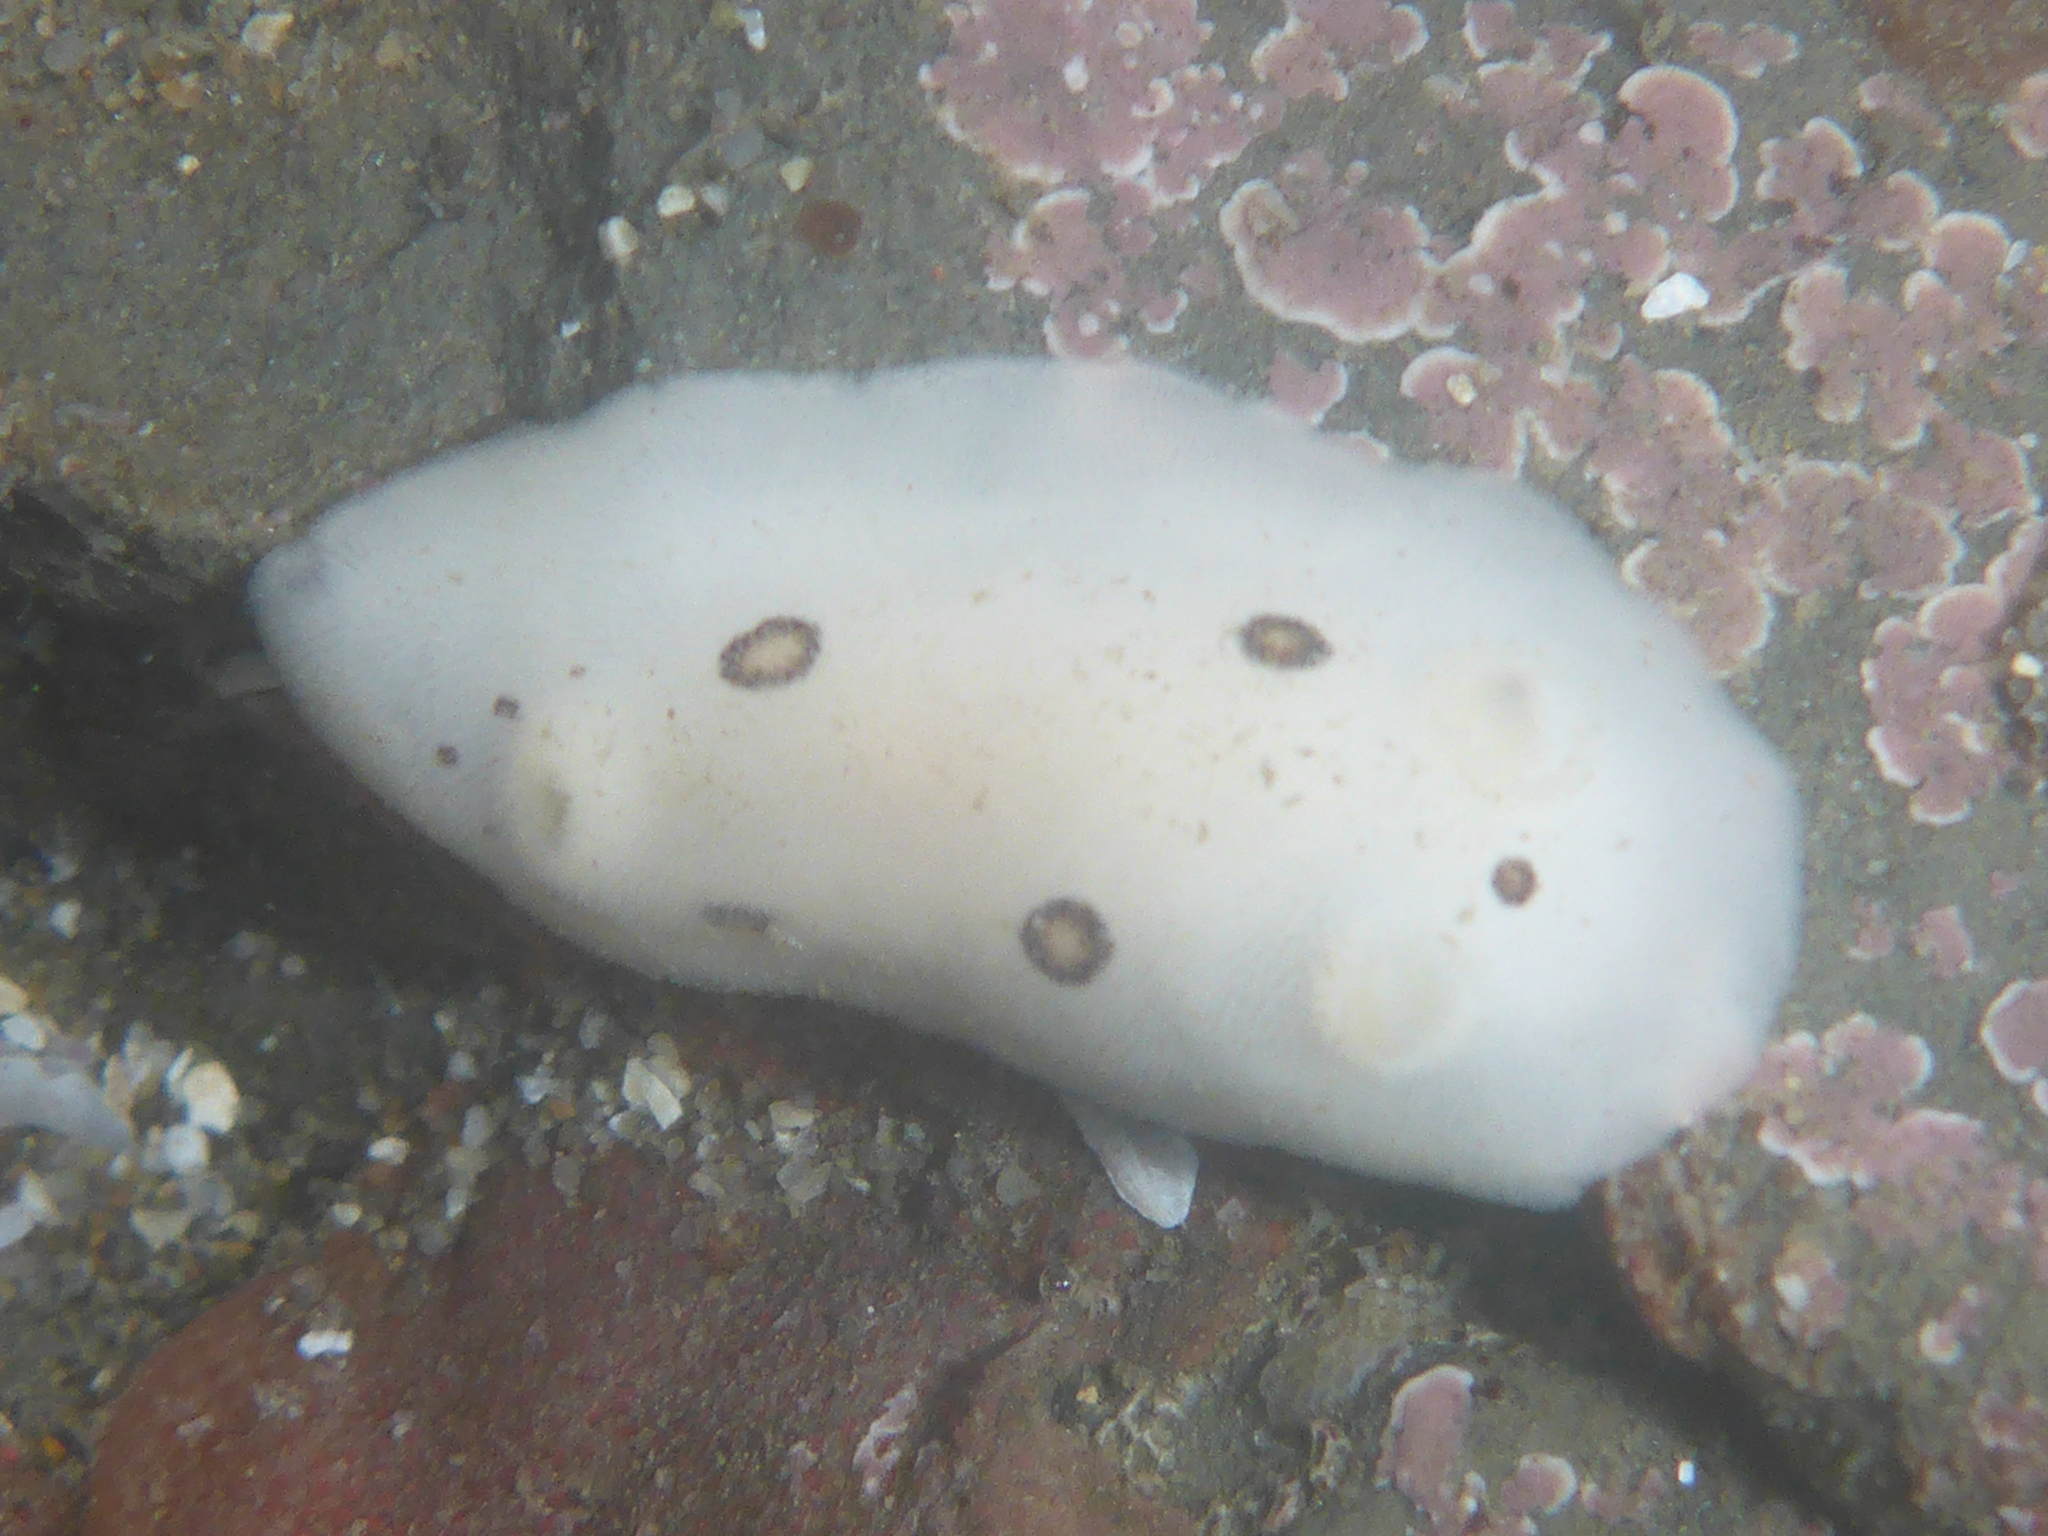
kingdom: Animalia
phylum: Mollusca
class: Gastropoda
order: Nudibranchia
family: Discodorididae
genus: Diaulula
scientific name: Diaulula sandiegensis
